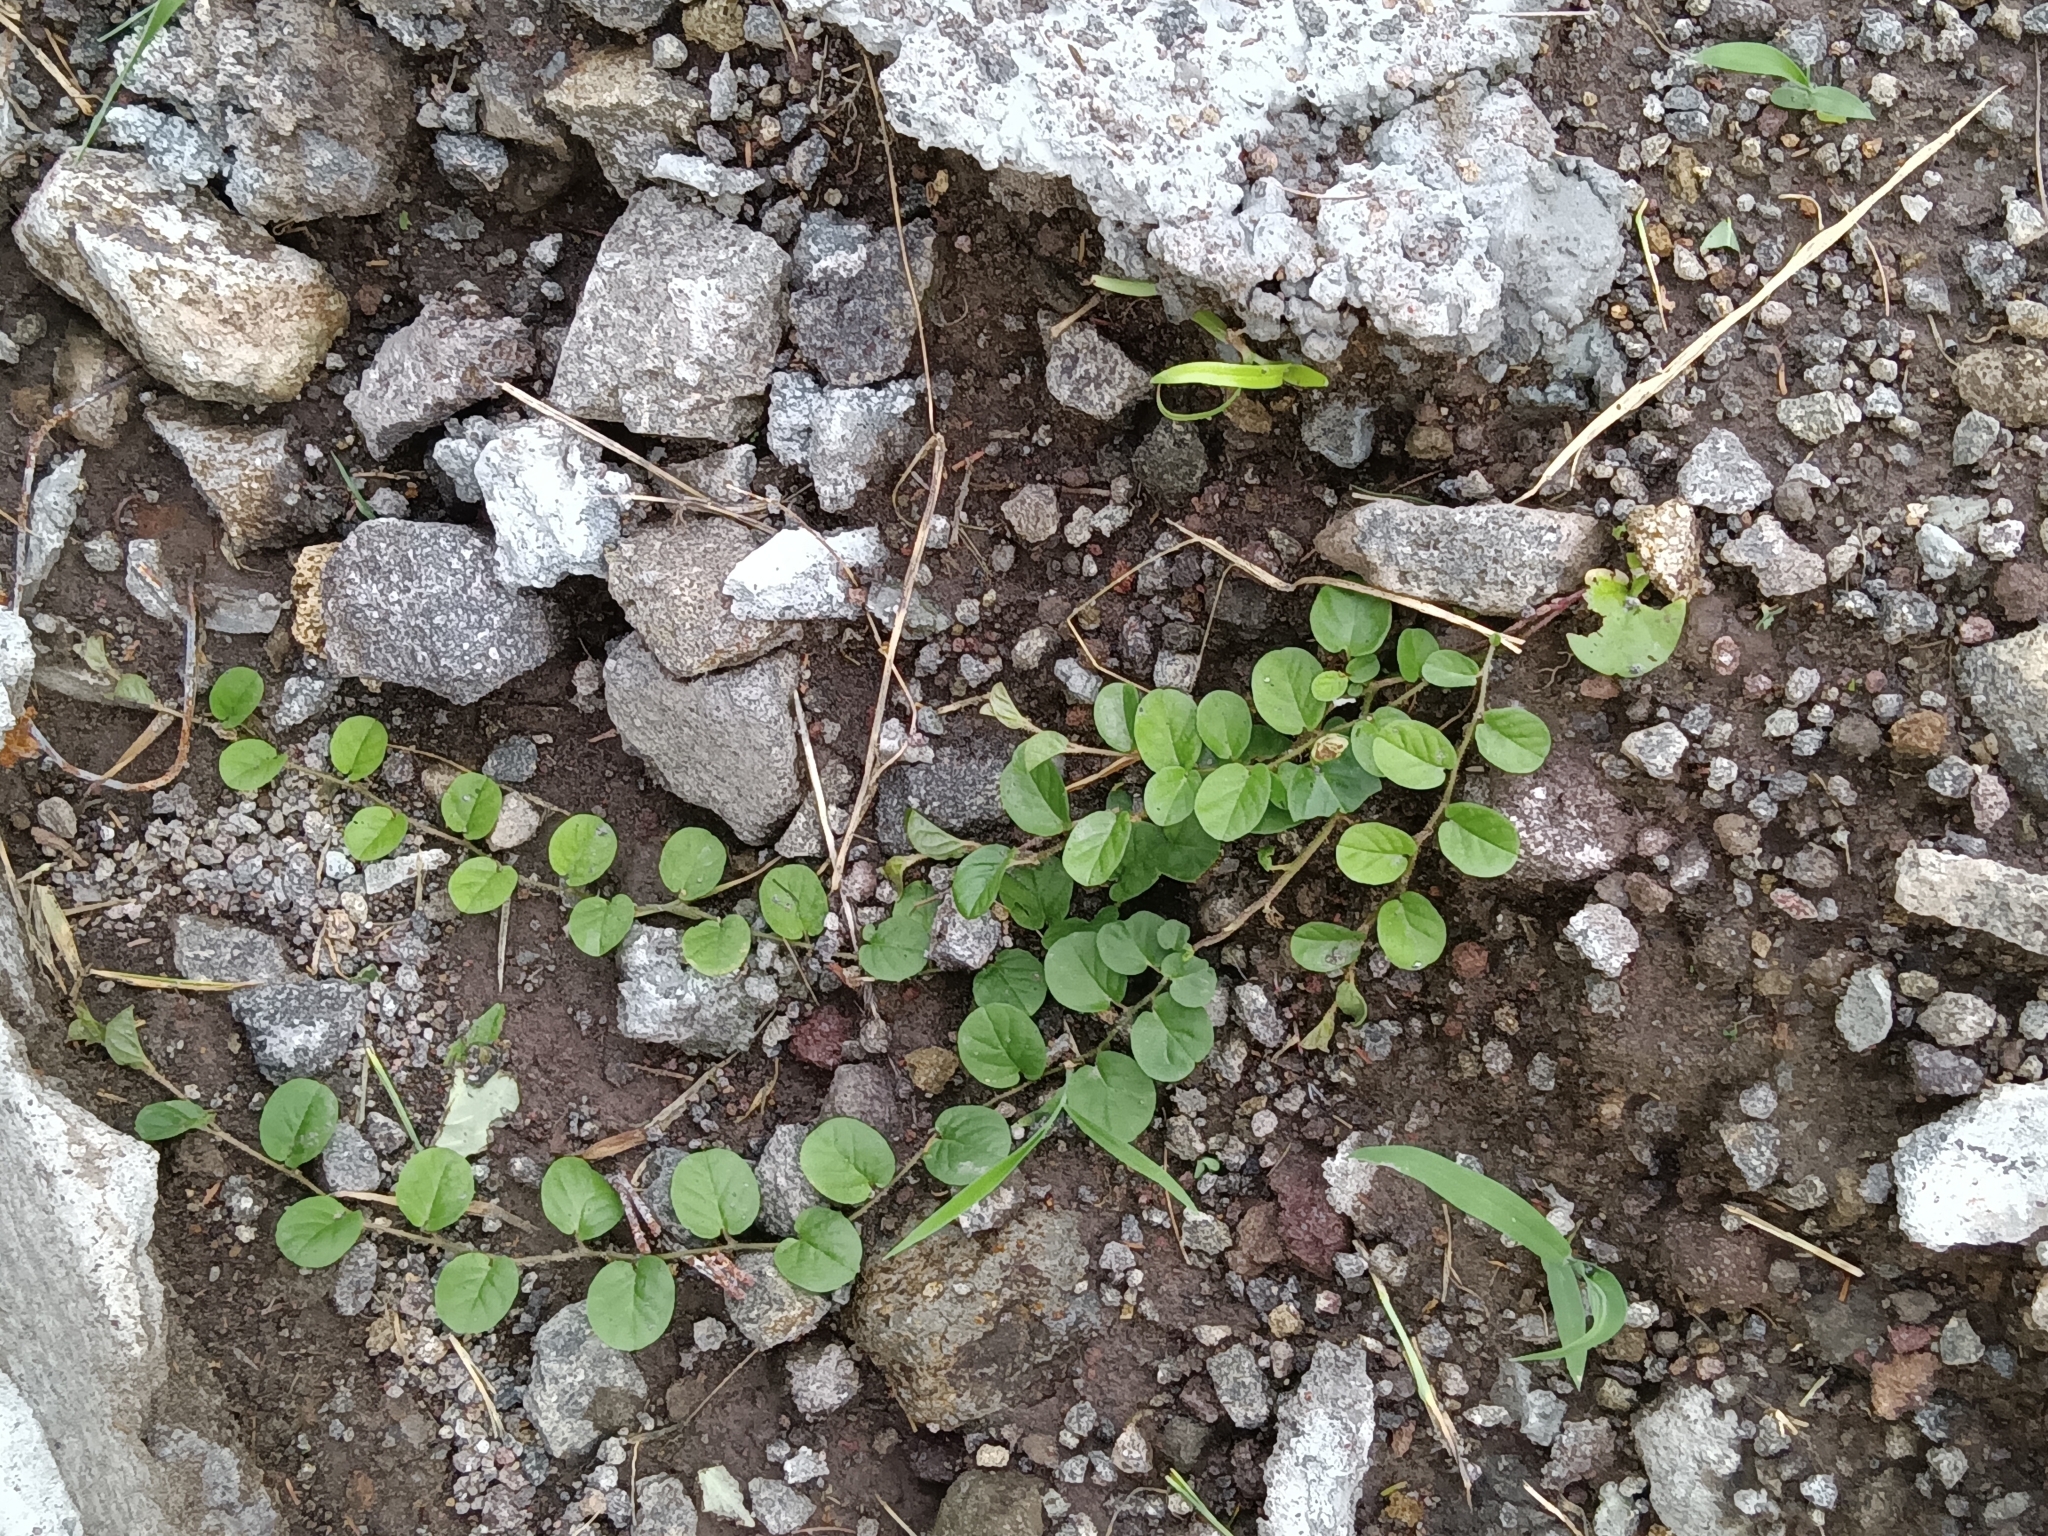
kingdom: Plantae
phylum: Tracheophyta
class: Magnoliopsida
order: Solanales
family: Convolvulaceae
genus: Evolvulus
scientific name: Evolvulus nummularius
